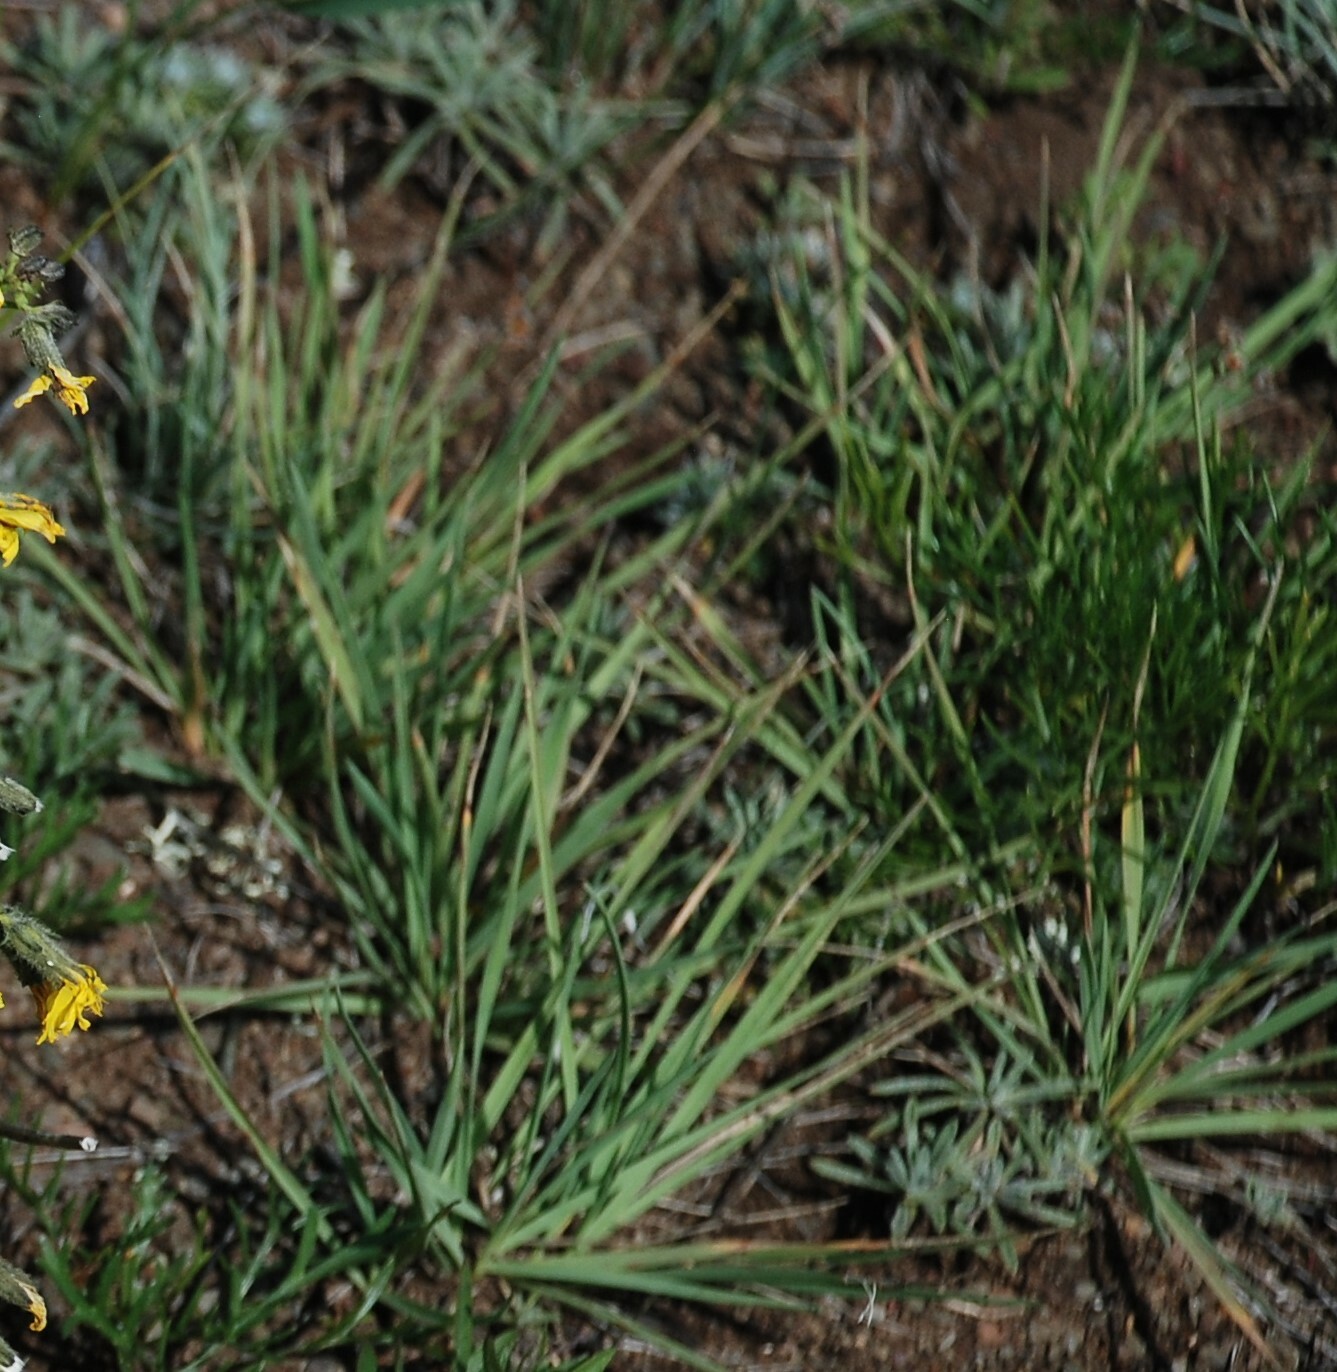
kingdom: Plantae
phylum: Tracheophyta
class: Liliopsida
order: Poales
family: Poaceae
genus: Cleistogenes
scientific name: Cleistogenes squarrosa
